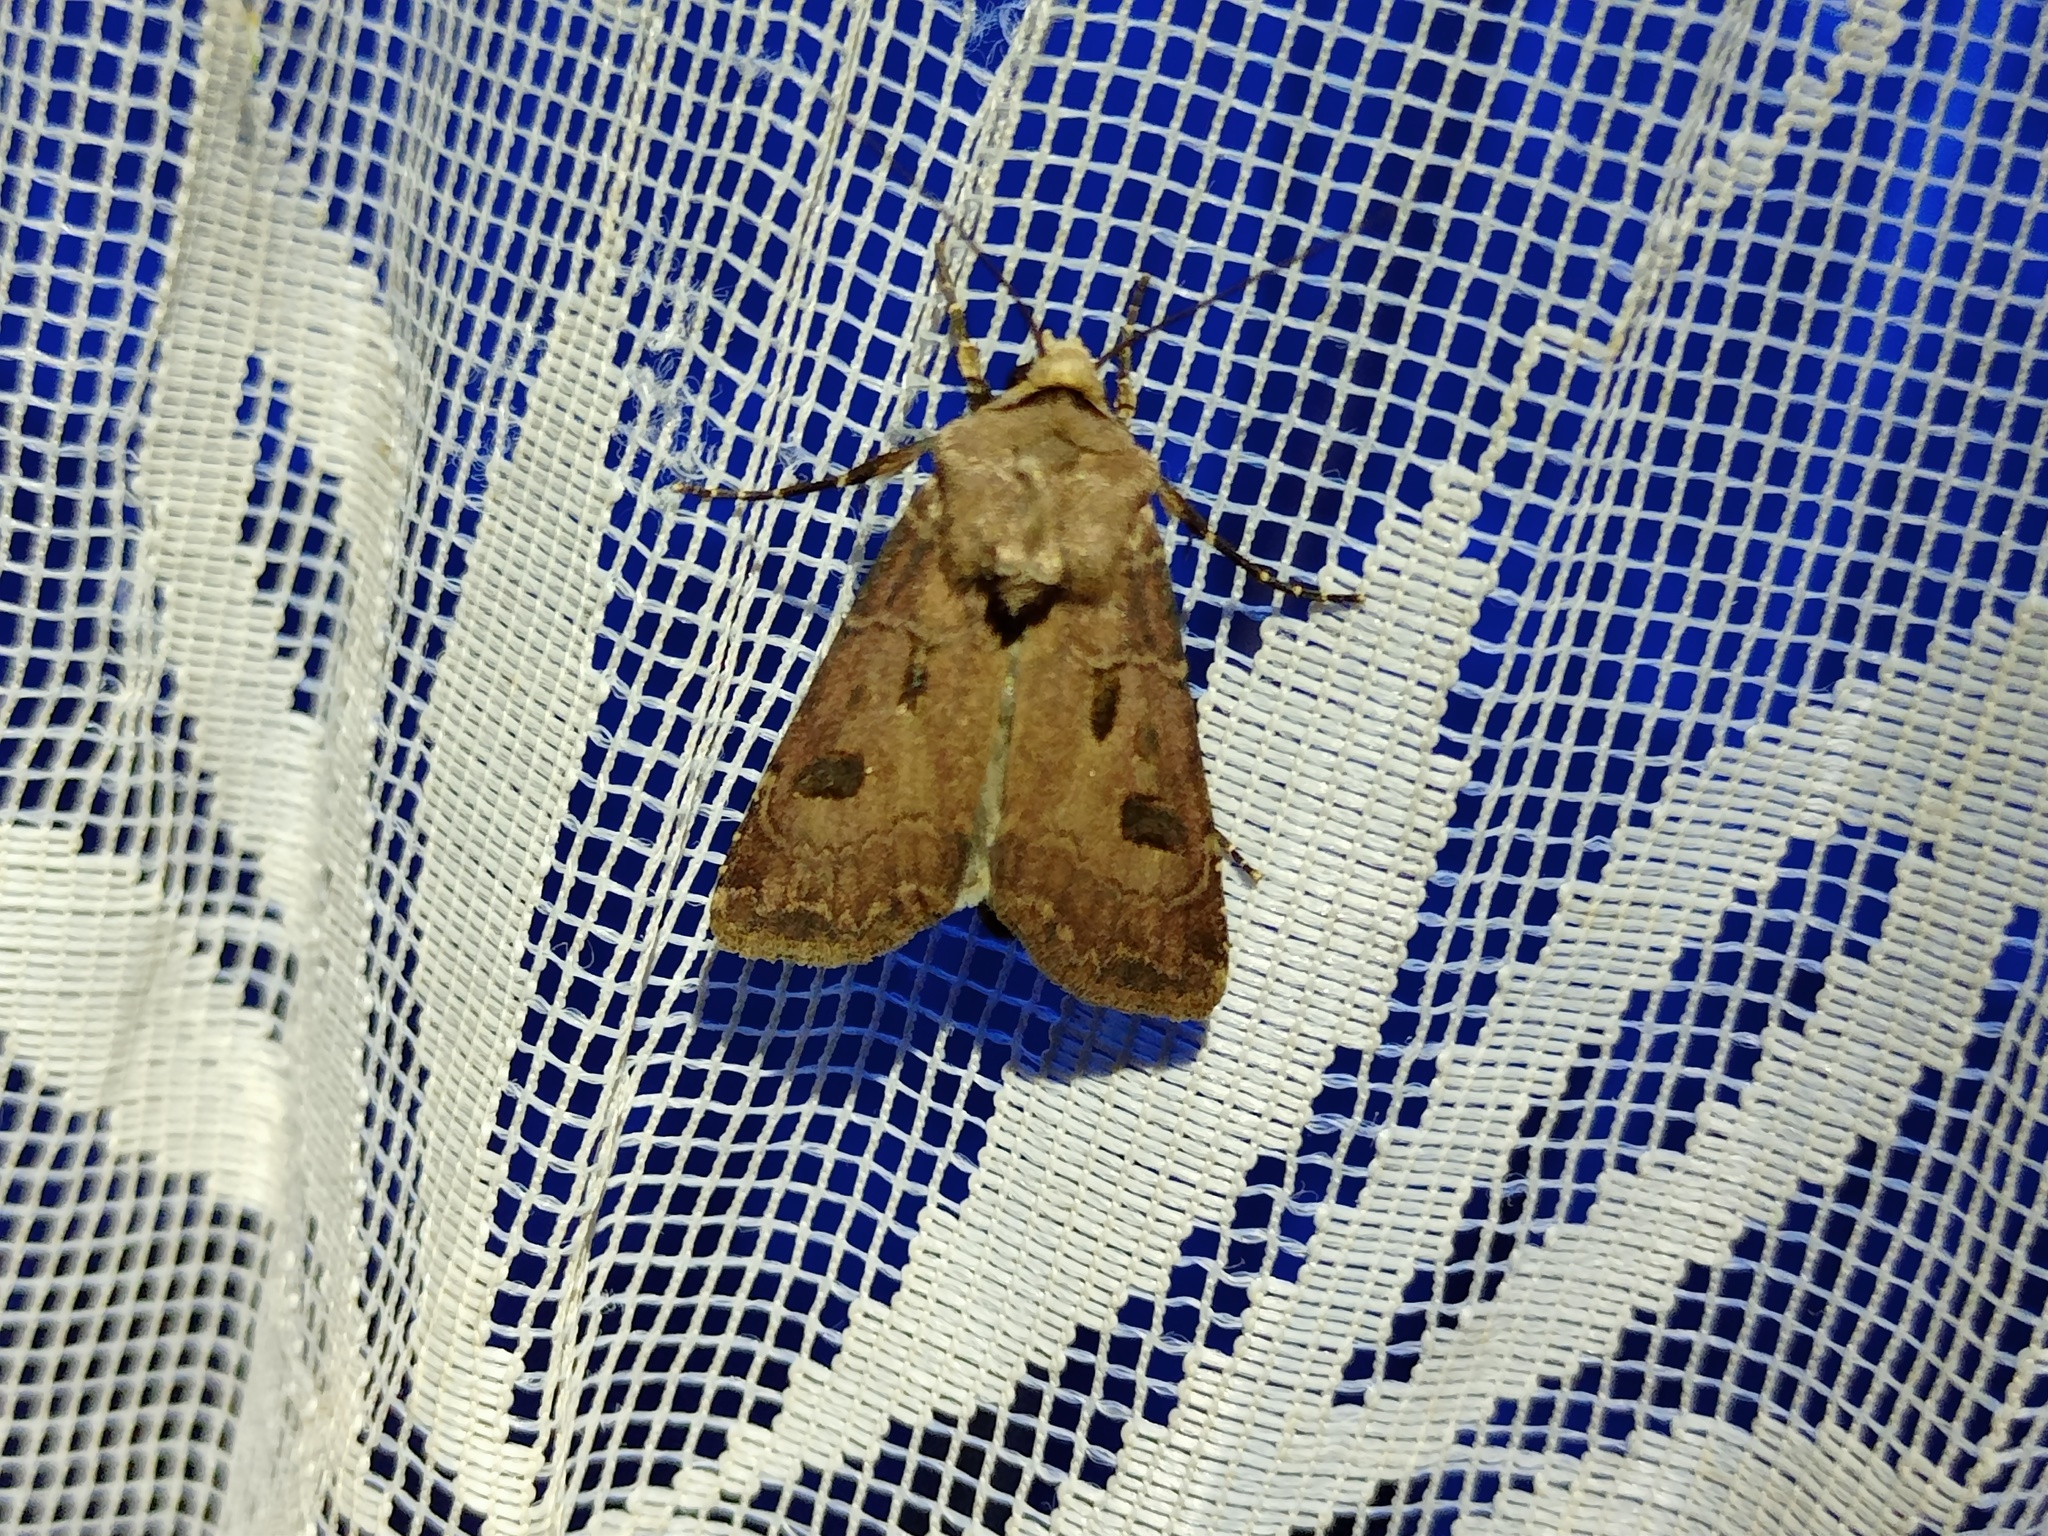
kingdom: Animalia
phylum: Arthropoda
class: Insecta
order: Lepidoptera
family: Noctuidae
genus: Agrotis
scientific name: Agrotis exclamationis
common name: Heart and dart
